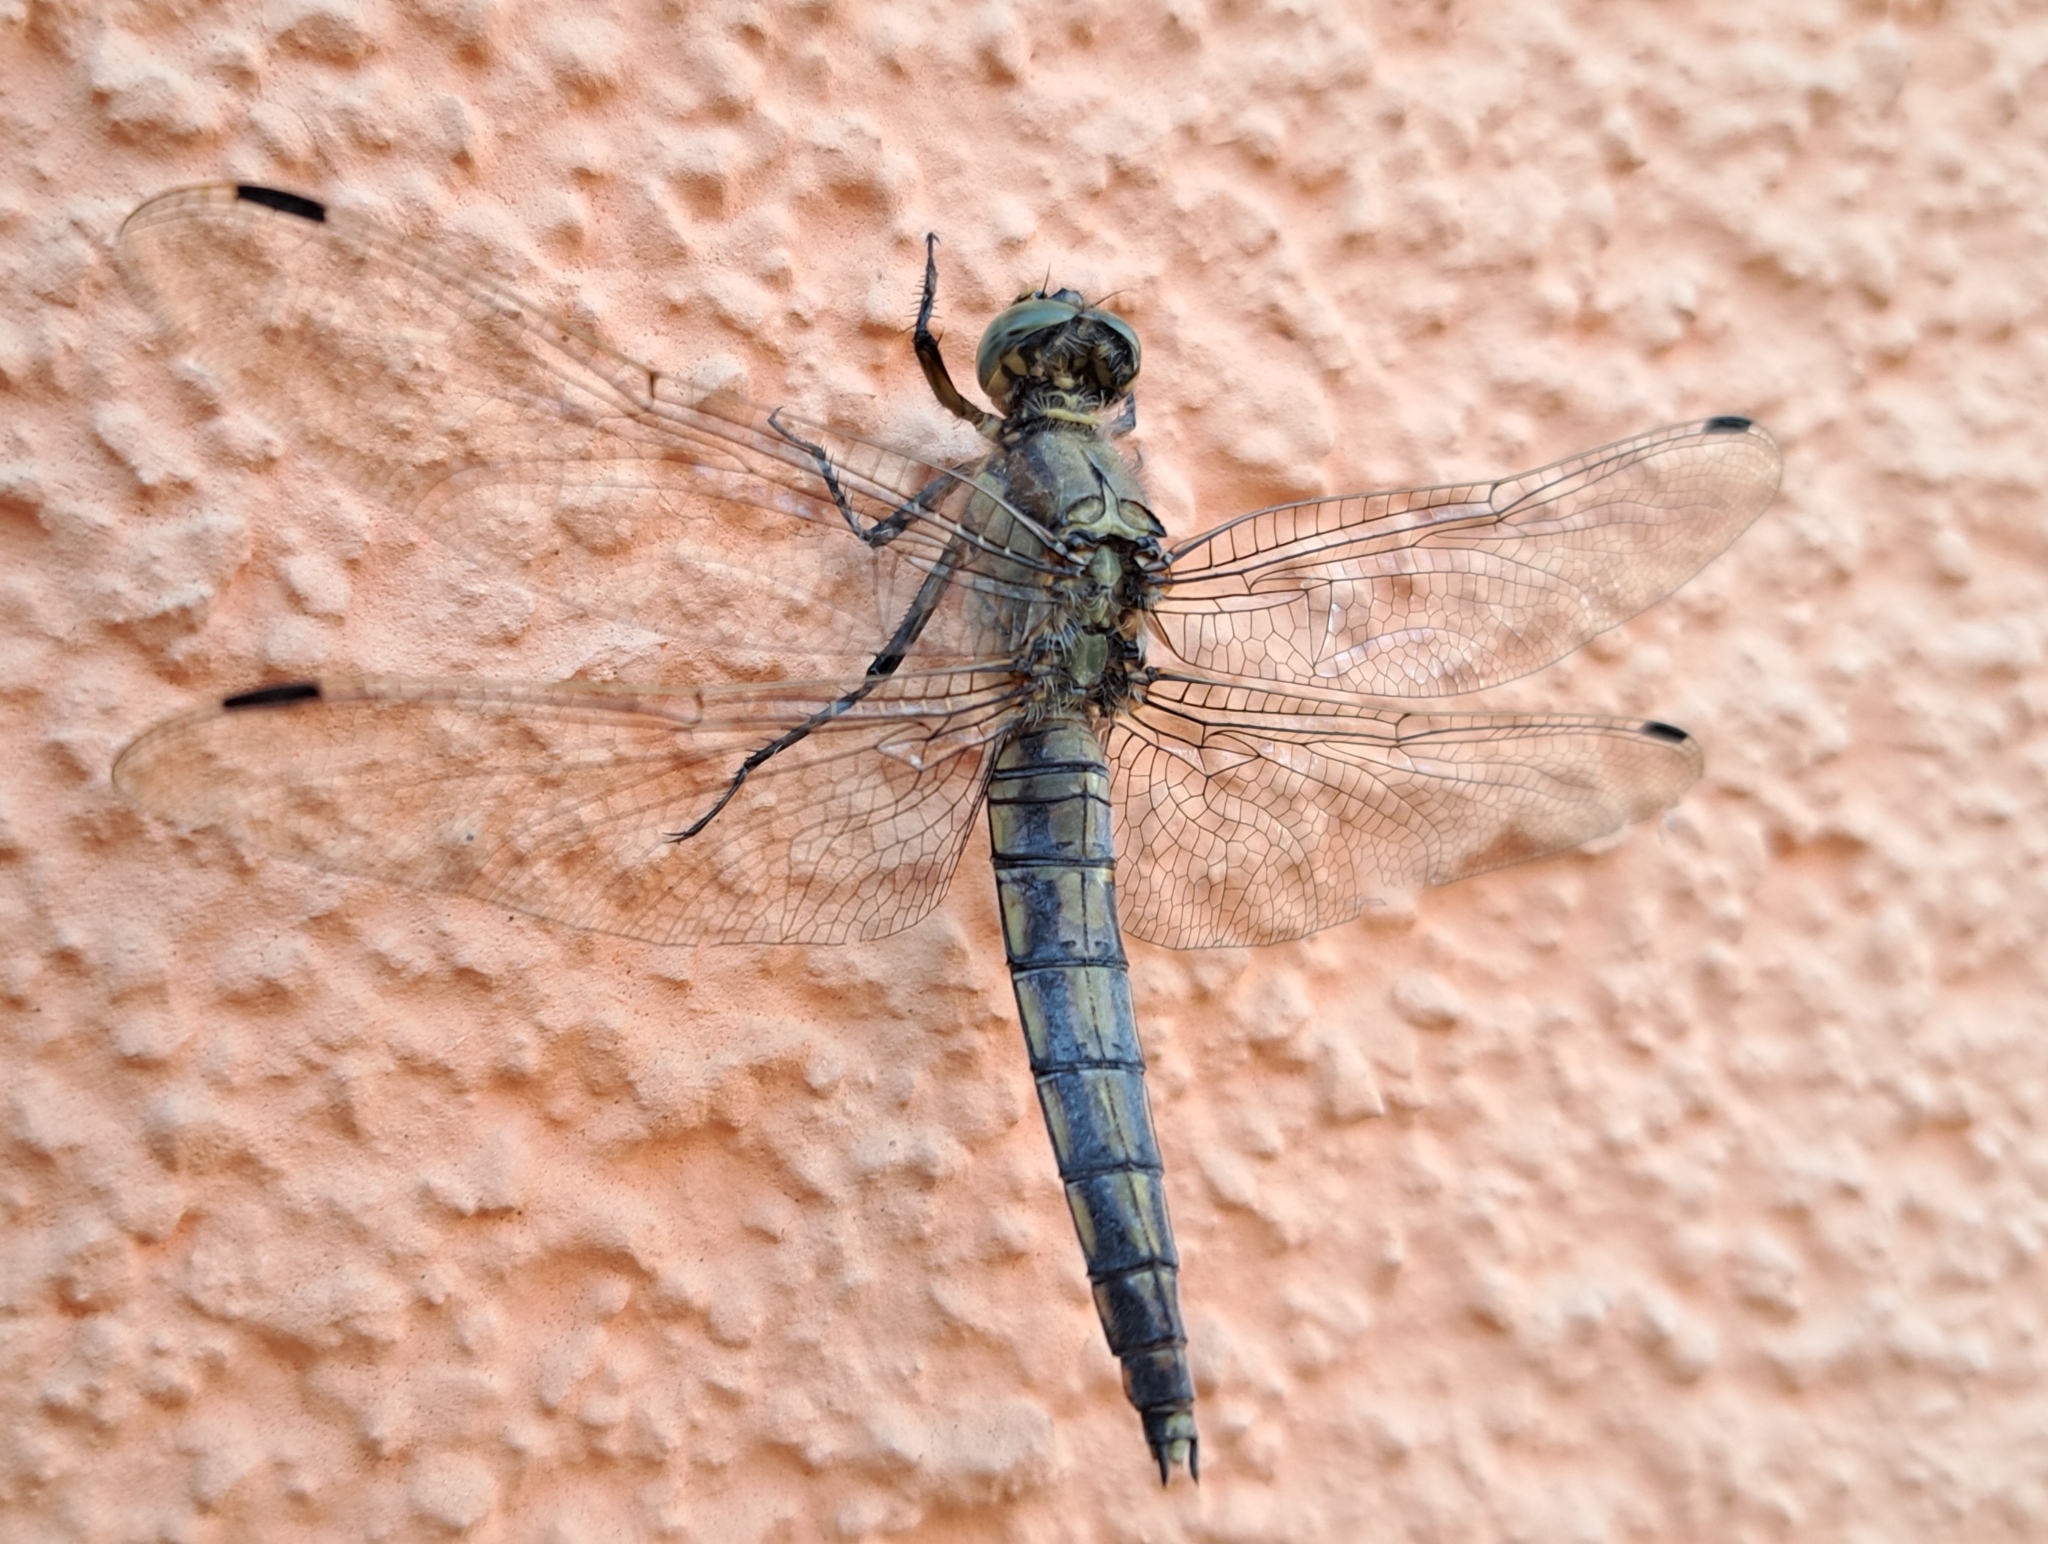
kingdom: Animalia
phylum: Arthropoda
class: Insecta
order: Odonata
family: Libellulidae
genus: Orthetrum
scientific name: Orthetrum cancellatum
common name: Black-tailed skimmer
